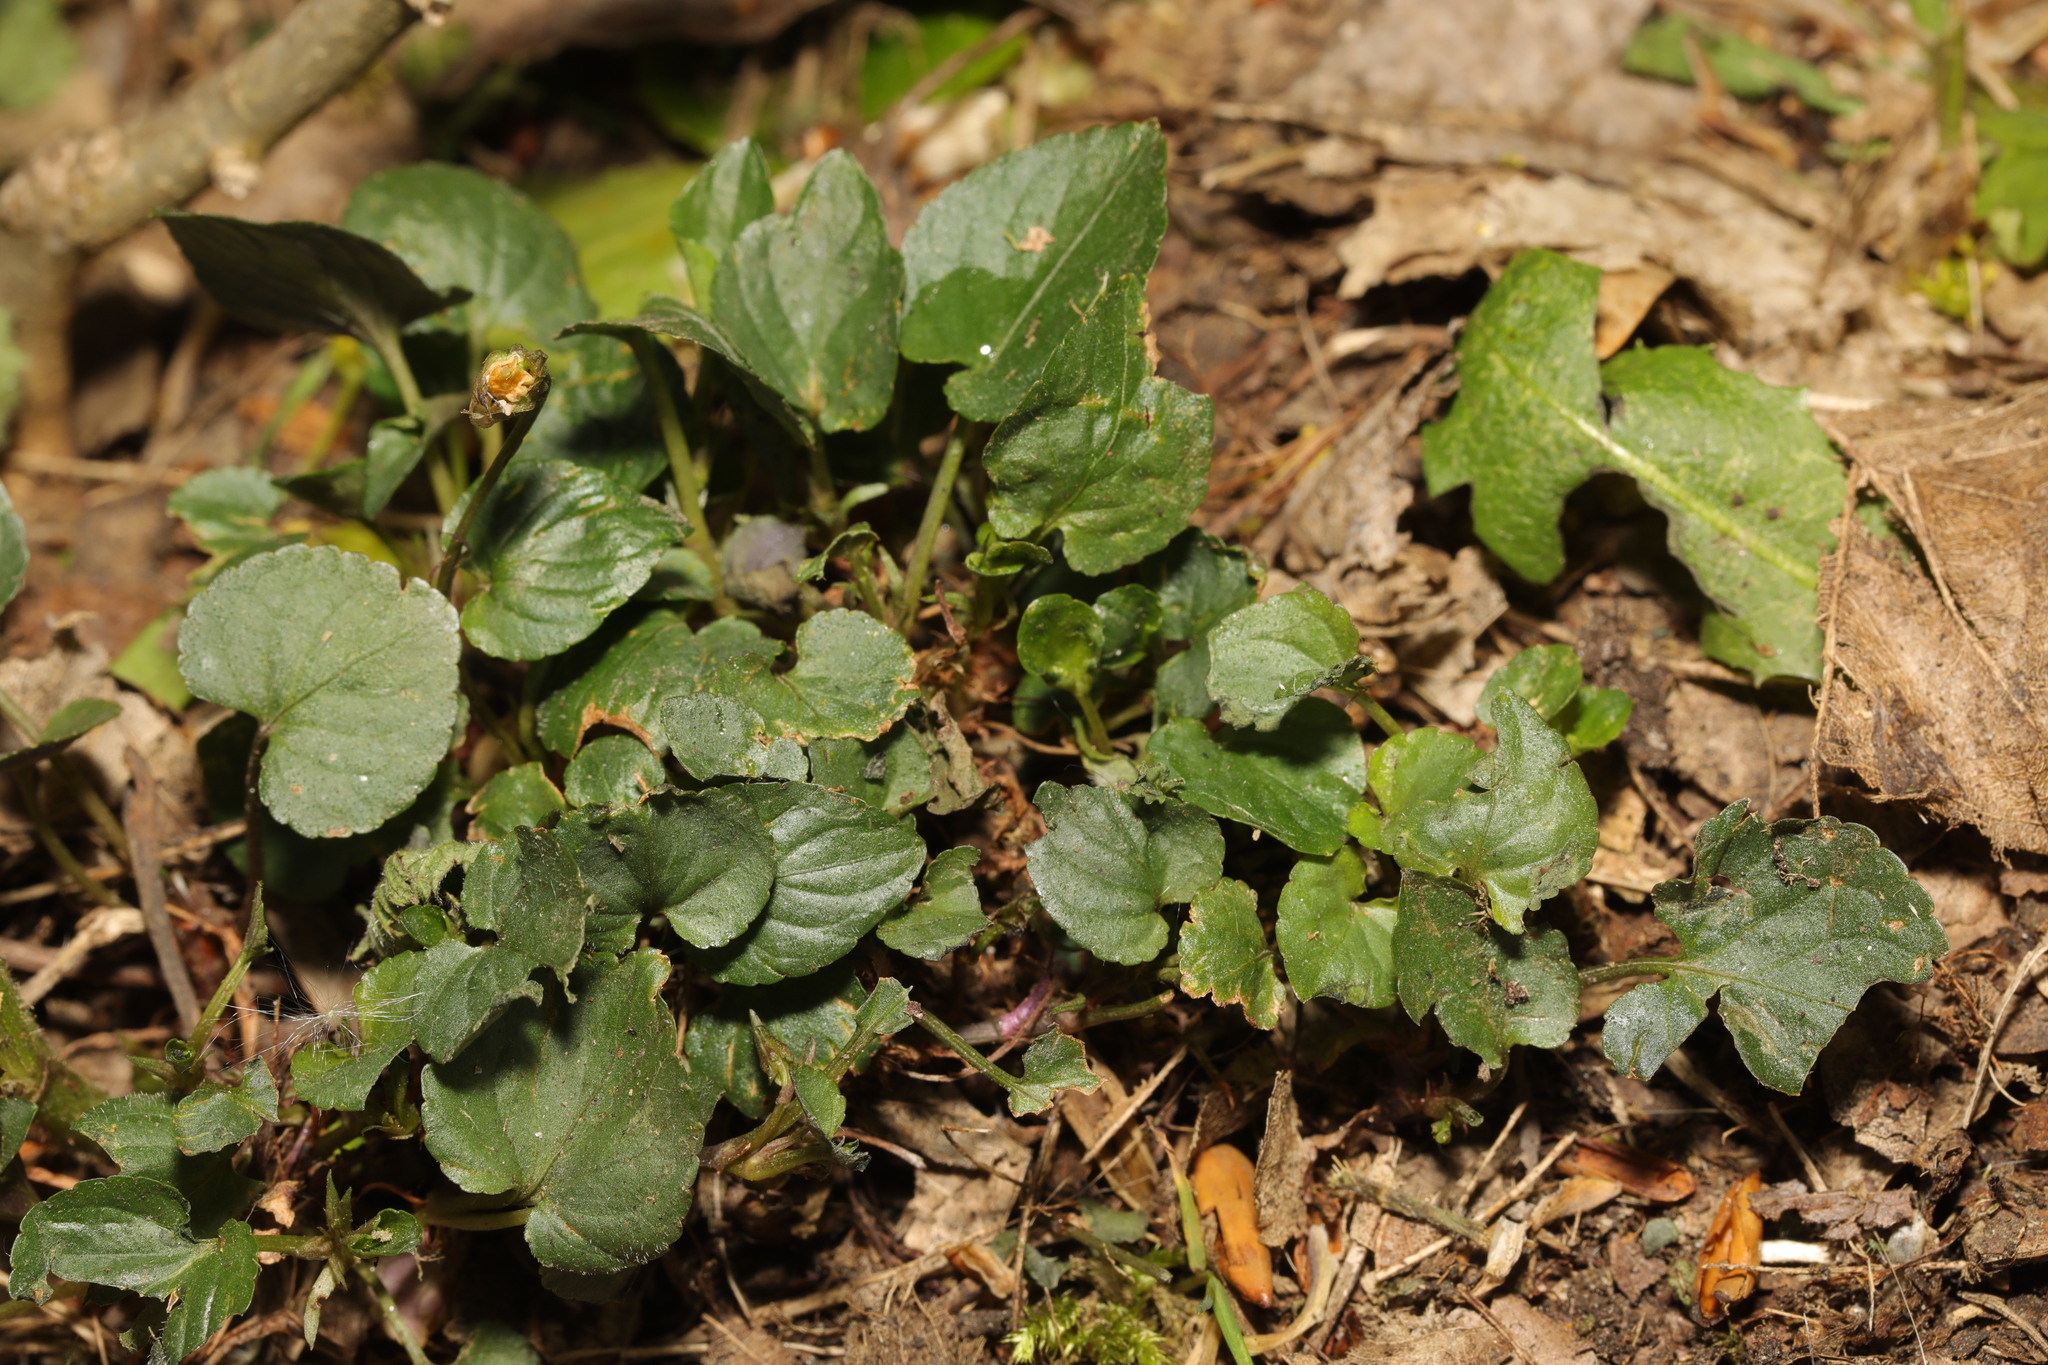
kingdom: Plantae
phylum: Tracheophyta
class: Magnoliopsida
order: Malpighiales
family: Violaceae
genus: Viola
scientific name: Viola riviniana
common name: Common dog-violet
